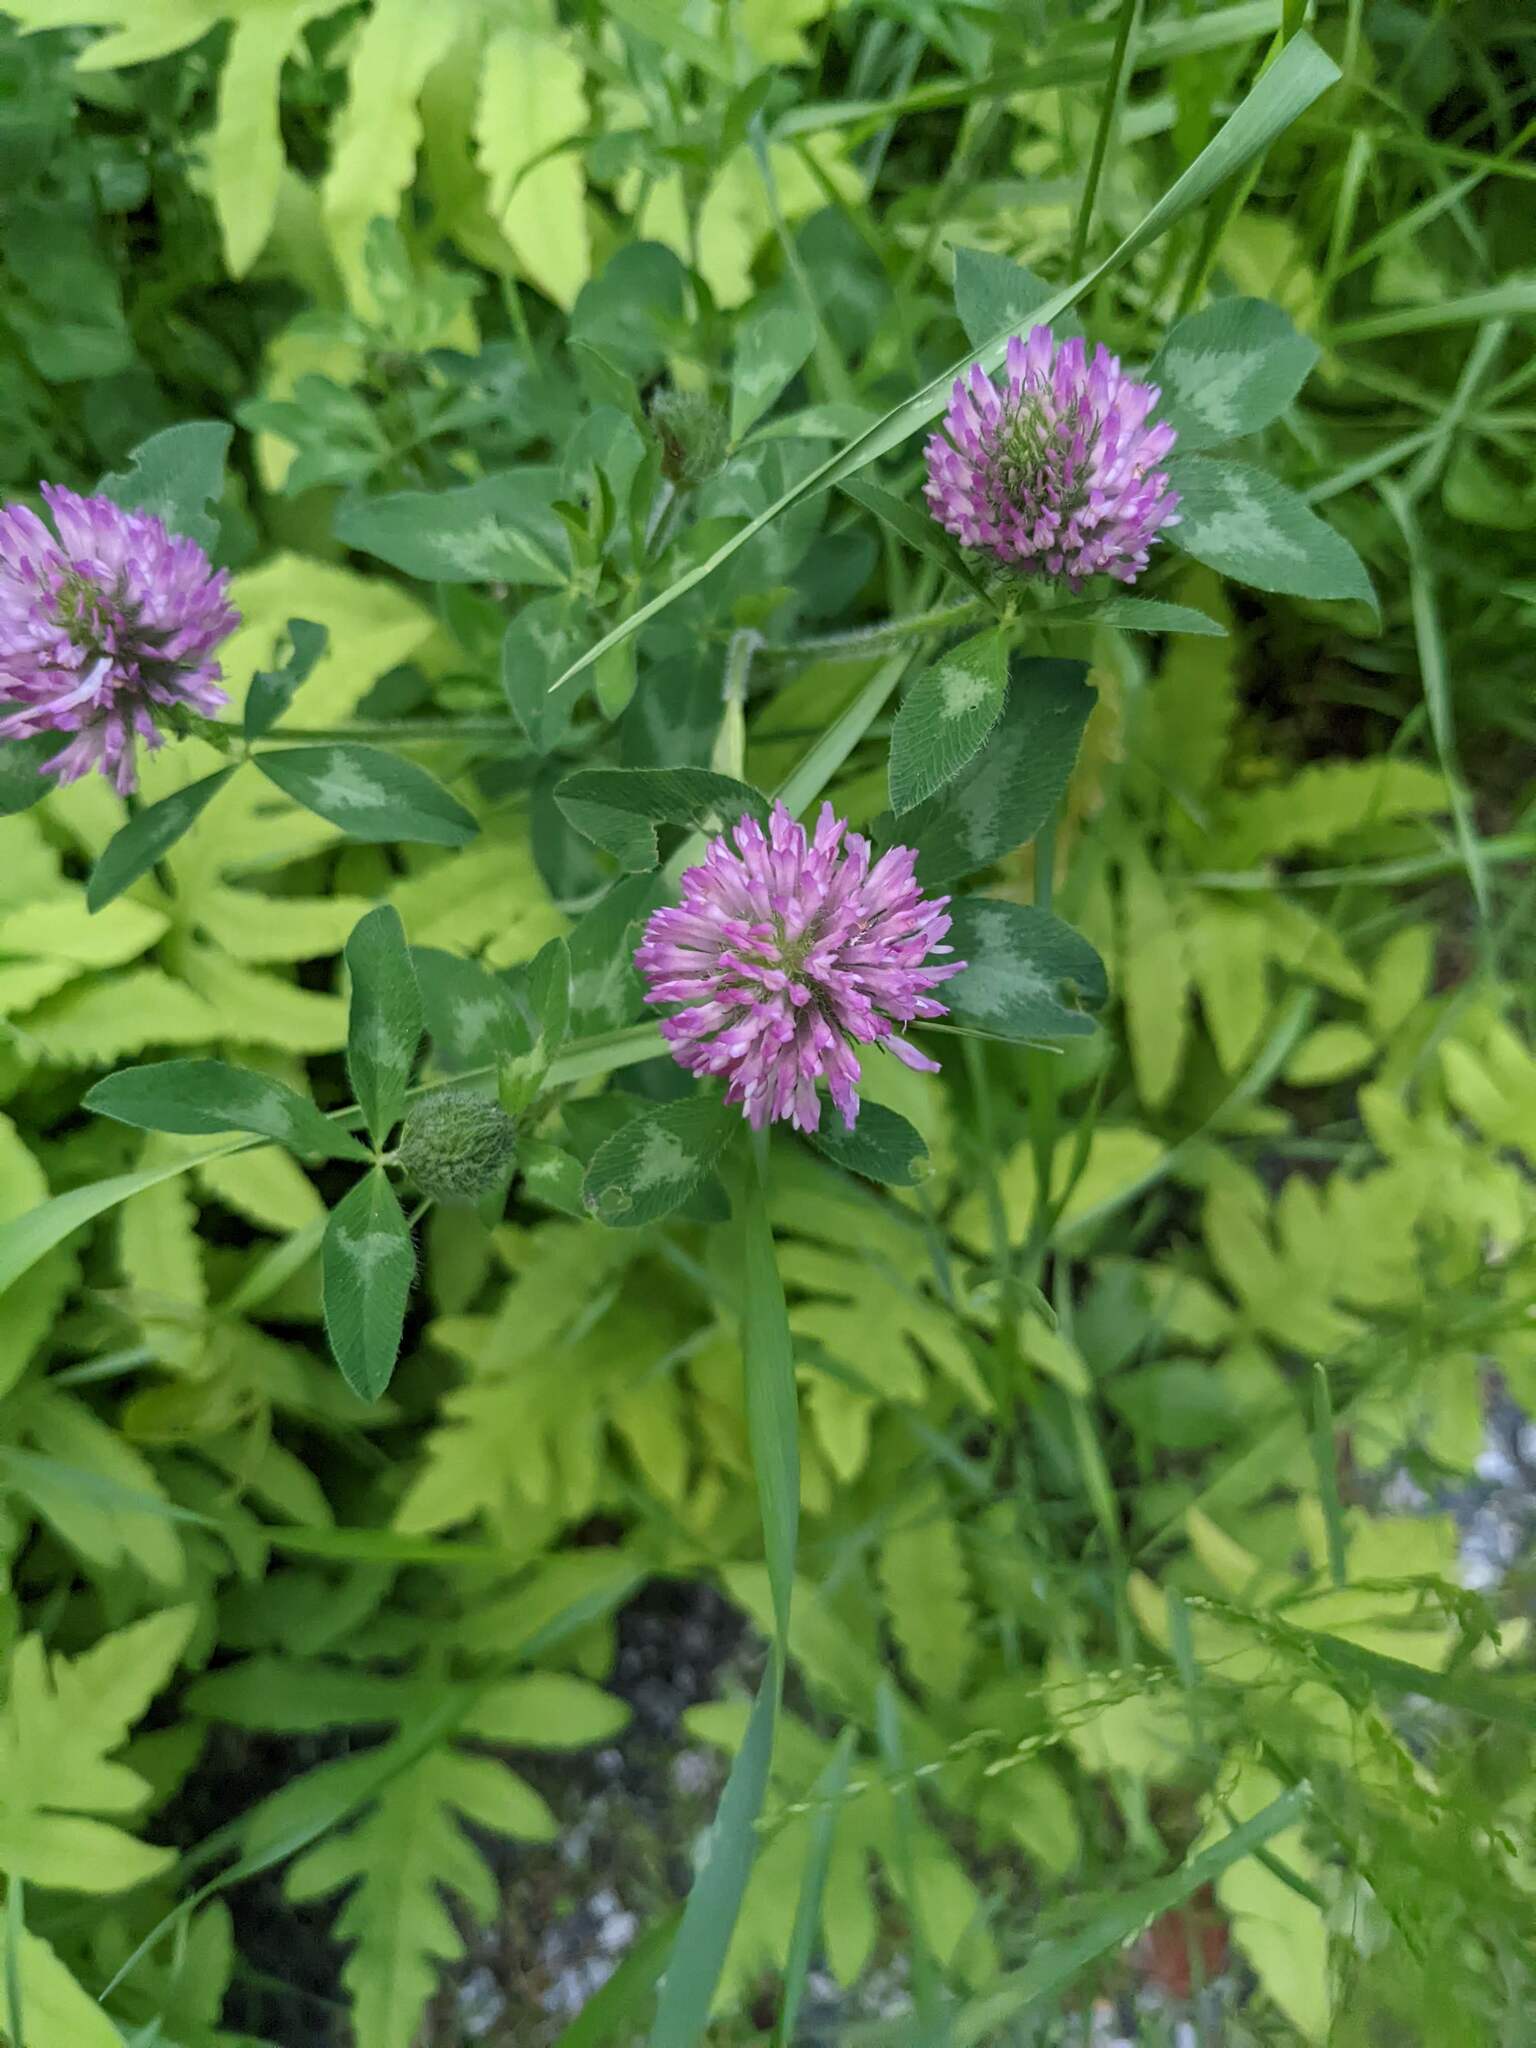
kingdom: Plantae
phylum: Tracheophyta
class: Magnoliopsida
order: Fabales
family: Fabaceae
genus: Trifolium
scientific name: Trifolium pratense
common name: Red clover
